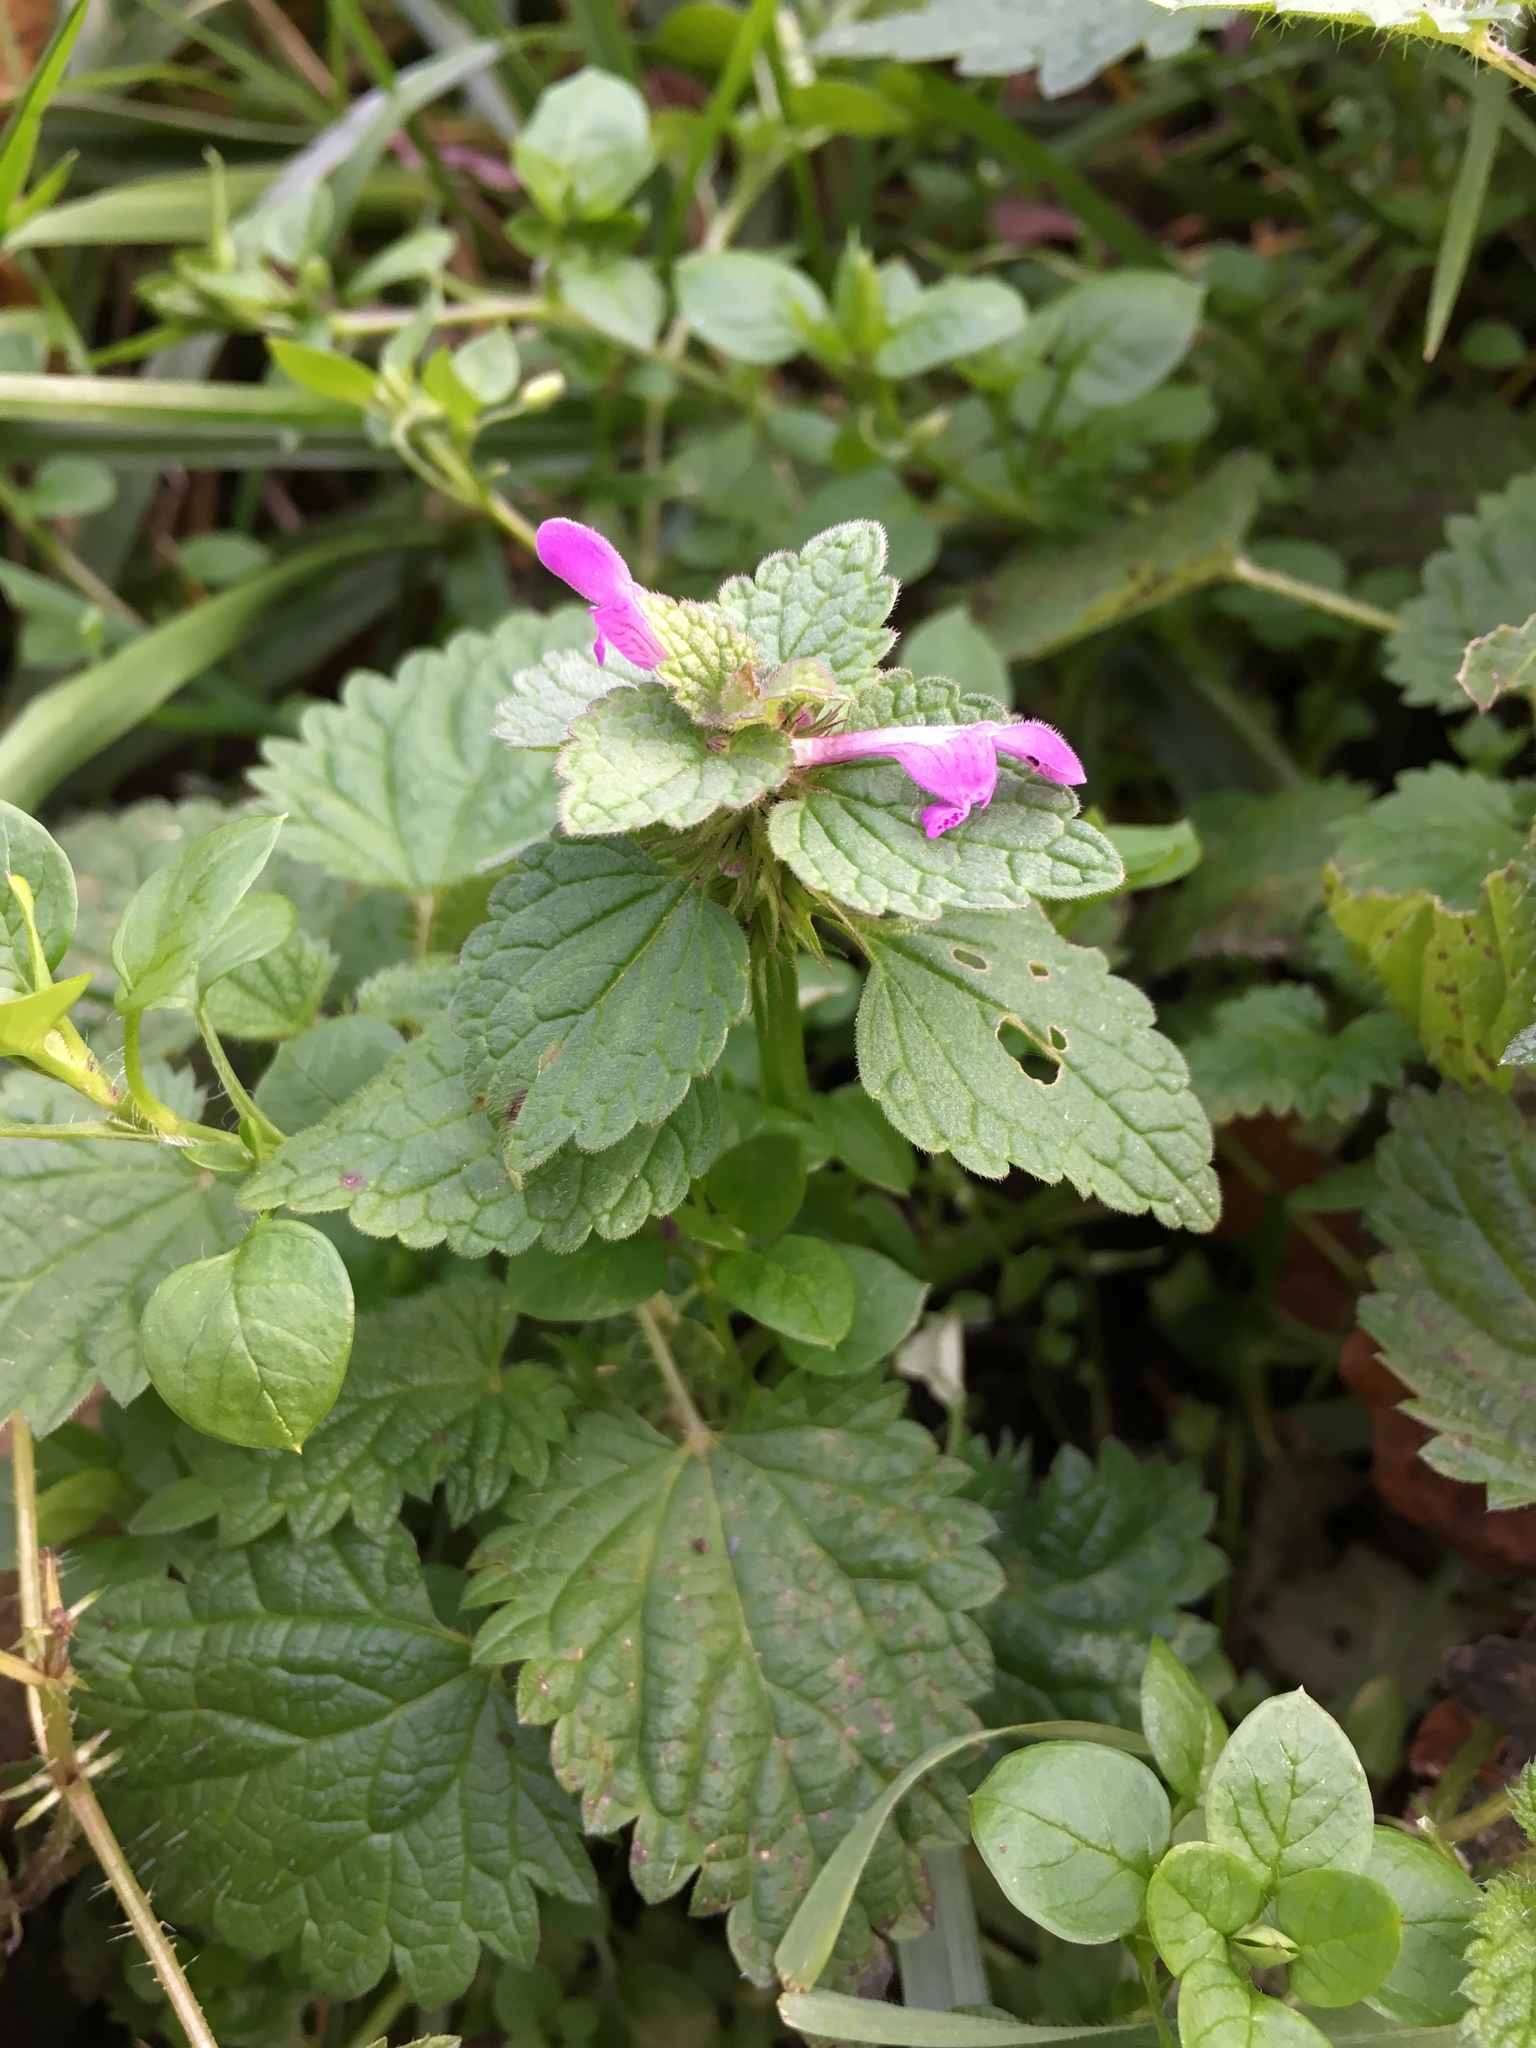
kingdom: Plantae
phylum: Tracheophyta
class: Magnoliopsida
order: Lamiales
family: Lamiaceae
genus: Lamium
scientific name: Lamium purpureum
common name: Red dead-nettle
